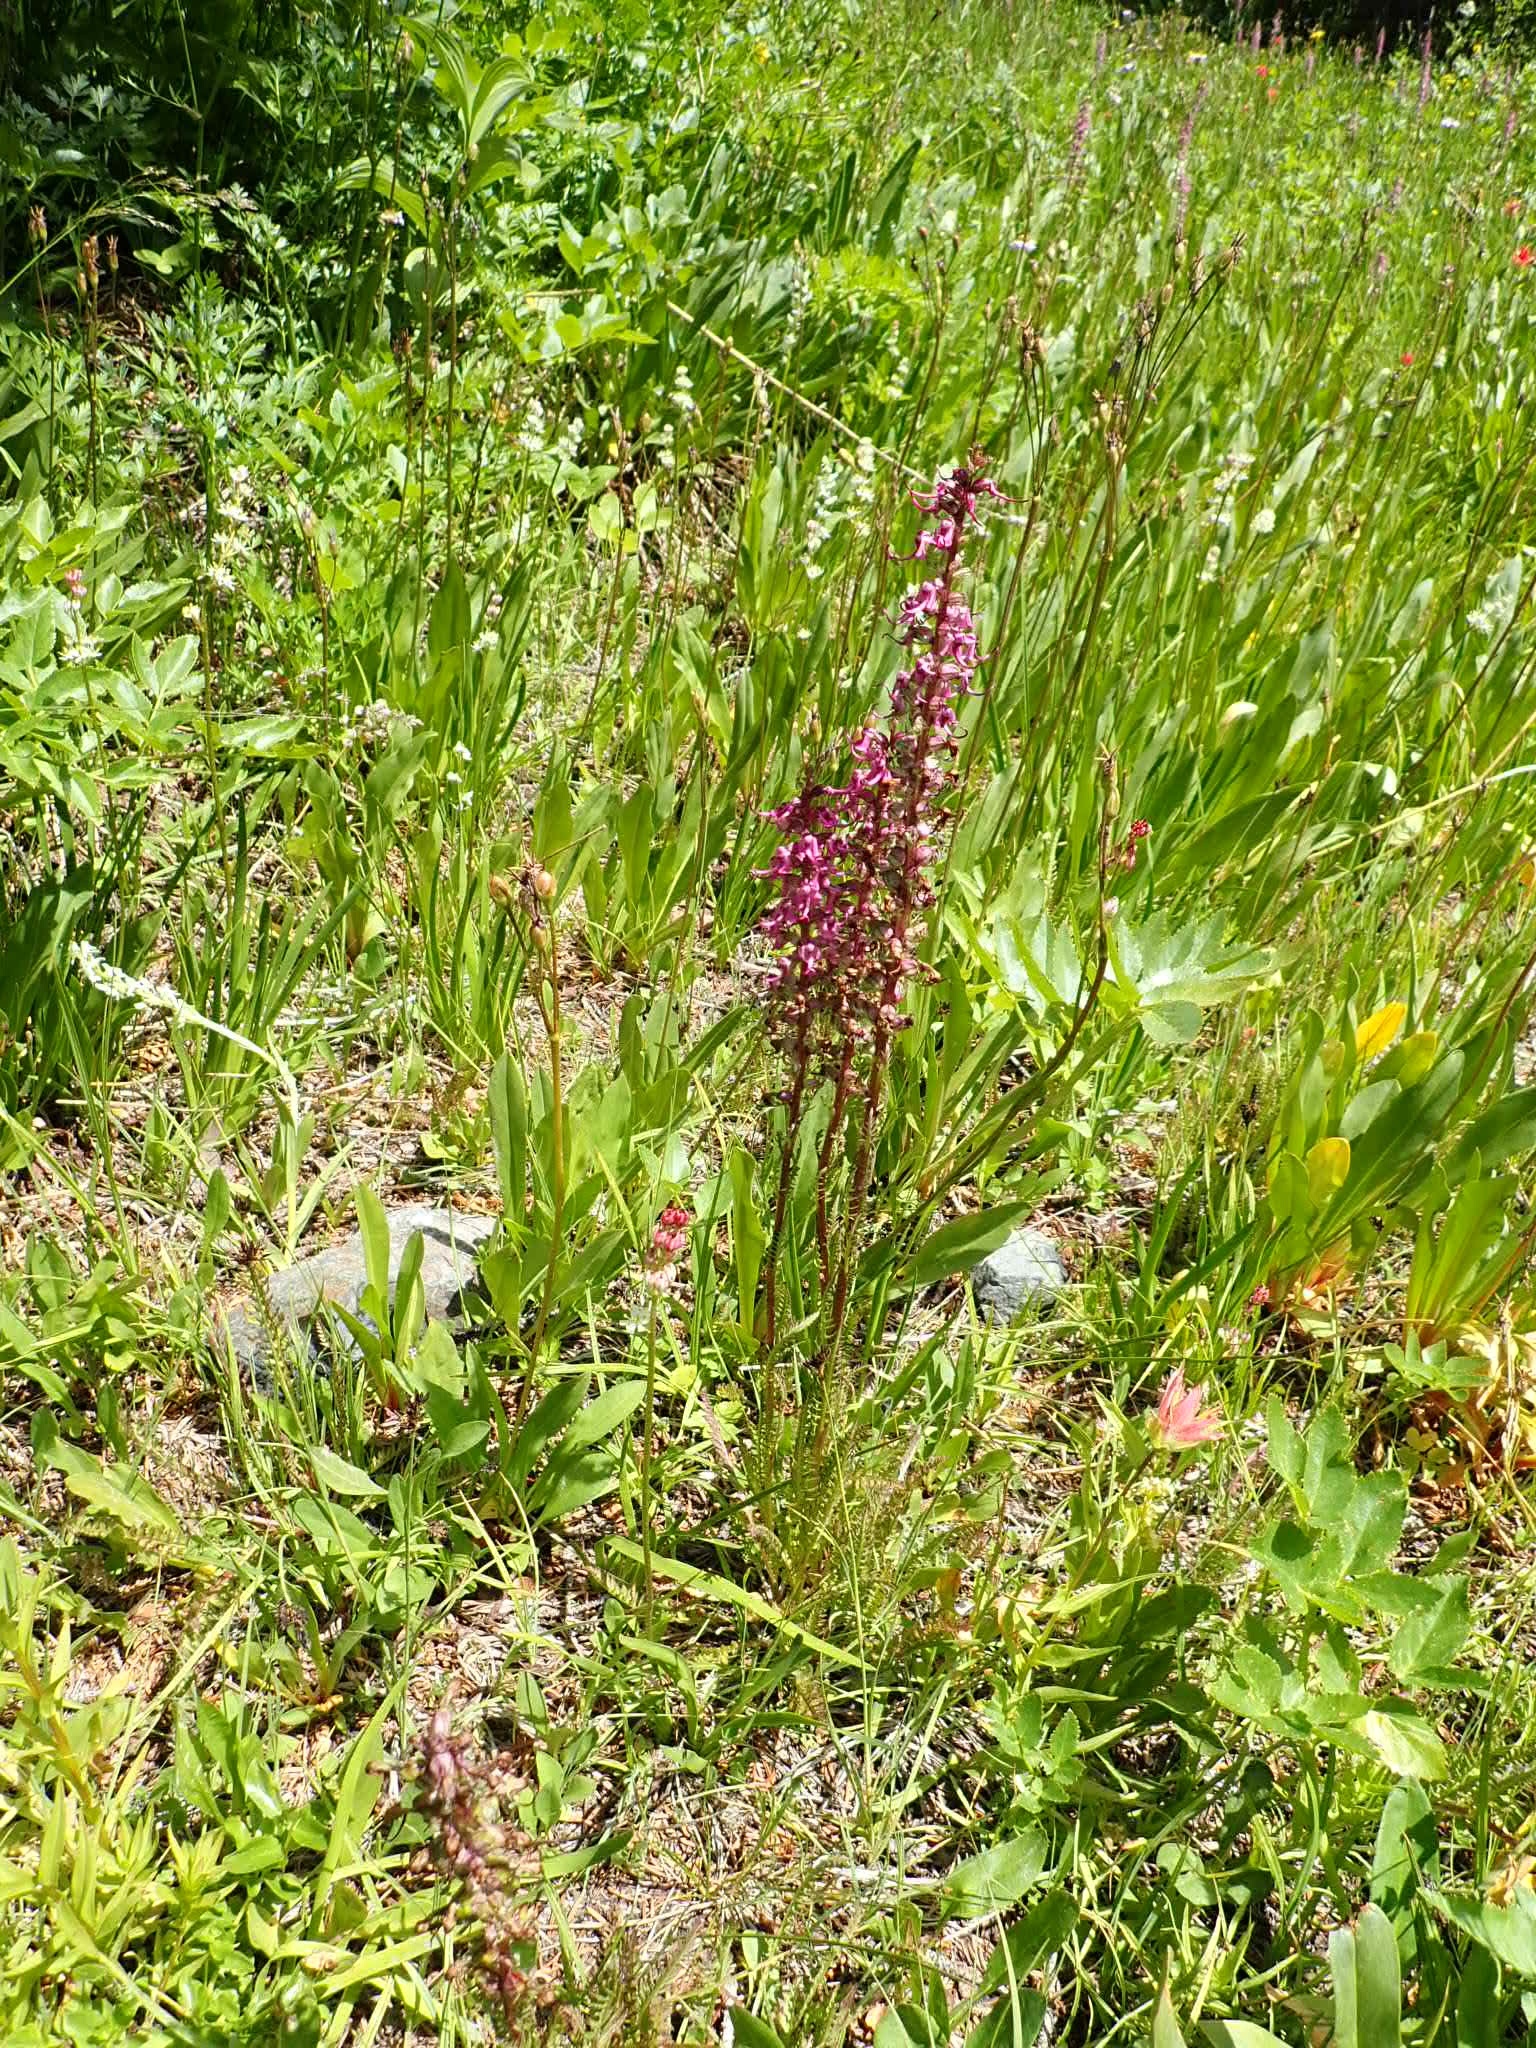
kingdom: Plantae
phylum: Tracheophyta
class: Magnoliopsida
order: Lamiales
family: Orobanchaceae
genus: Pedicularis
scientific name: Pedicularis groenlandica
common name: Elephant's-head
